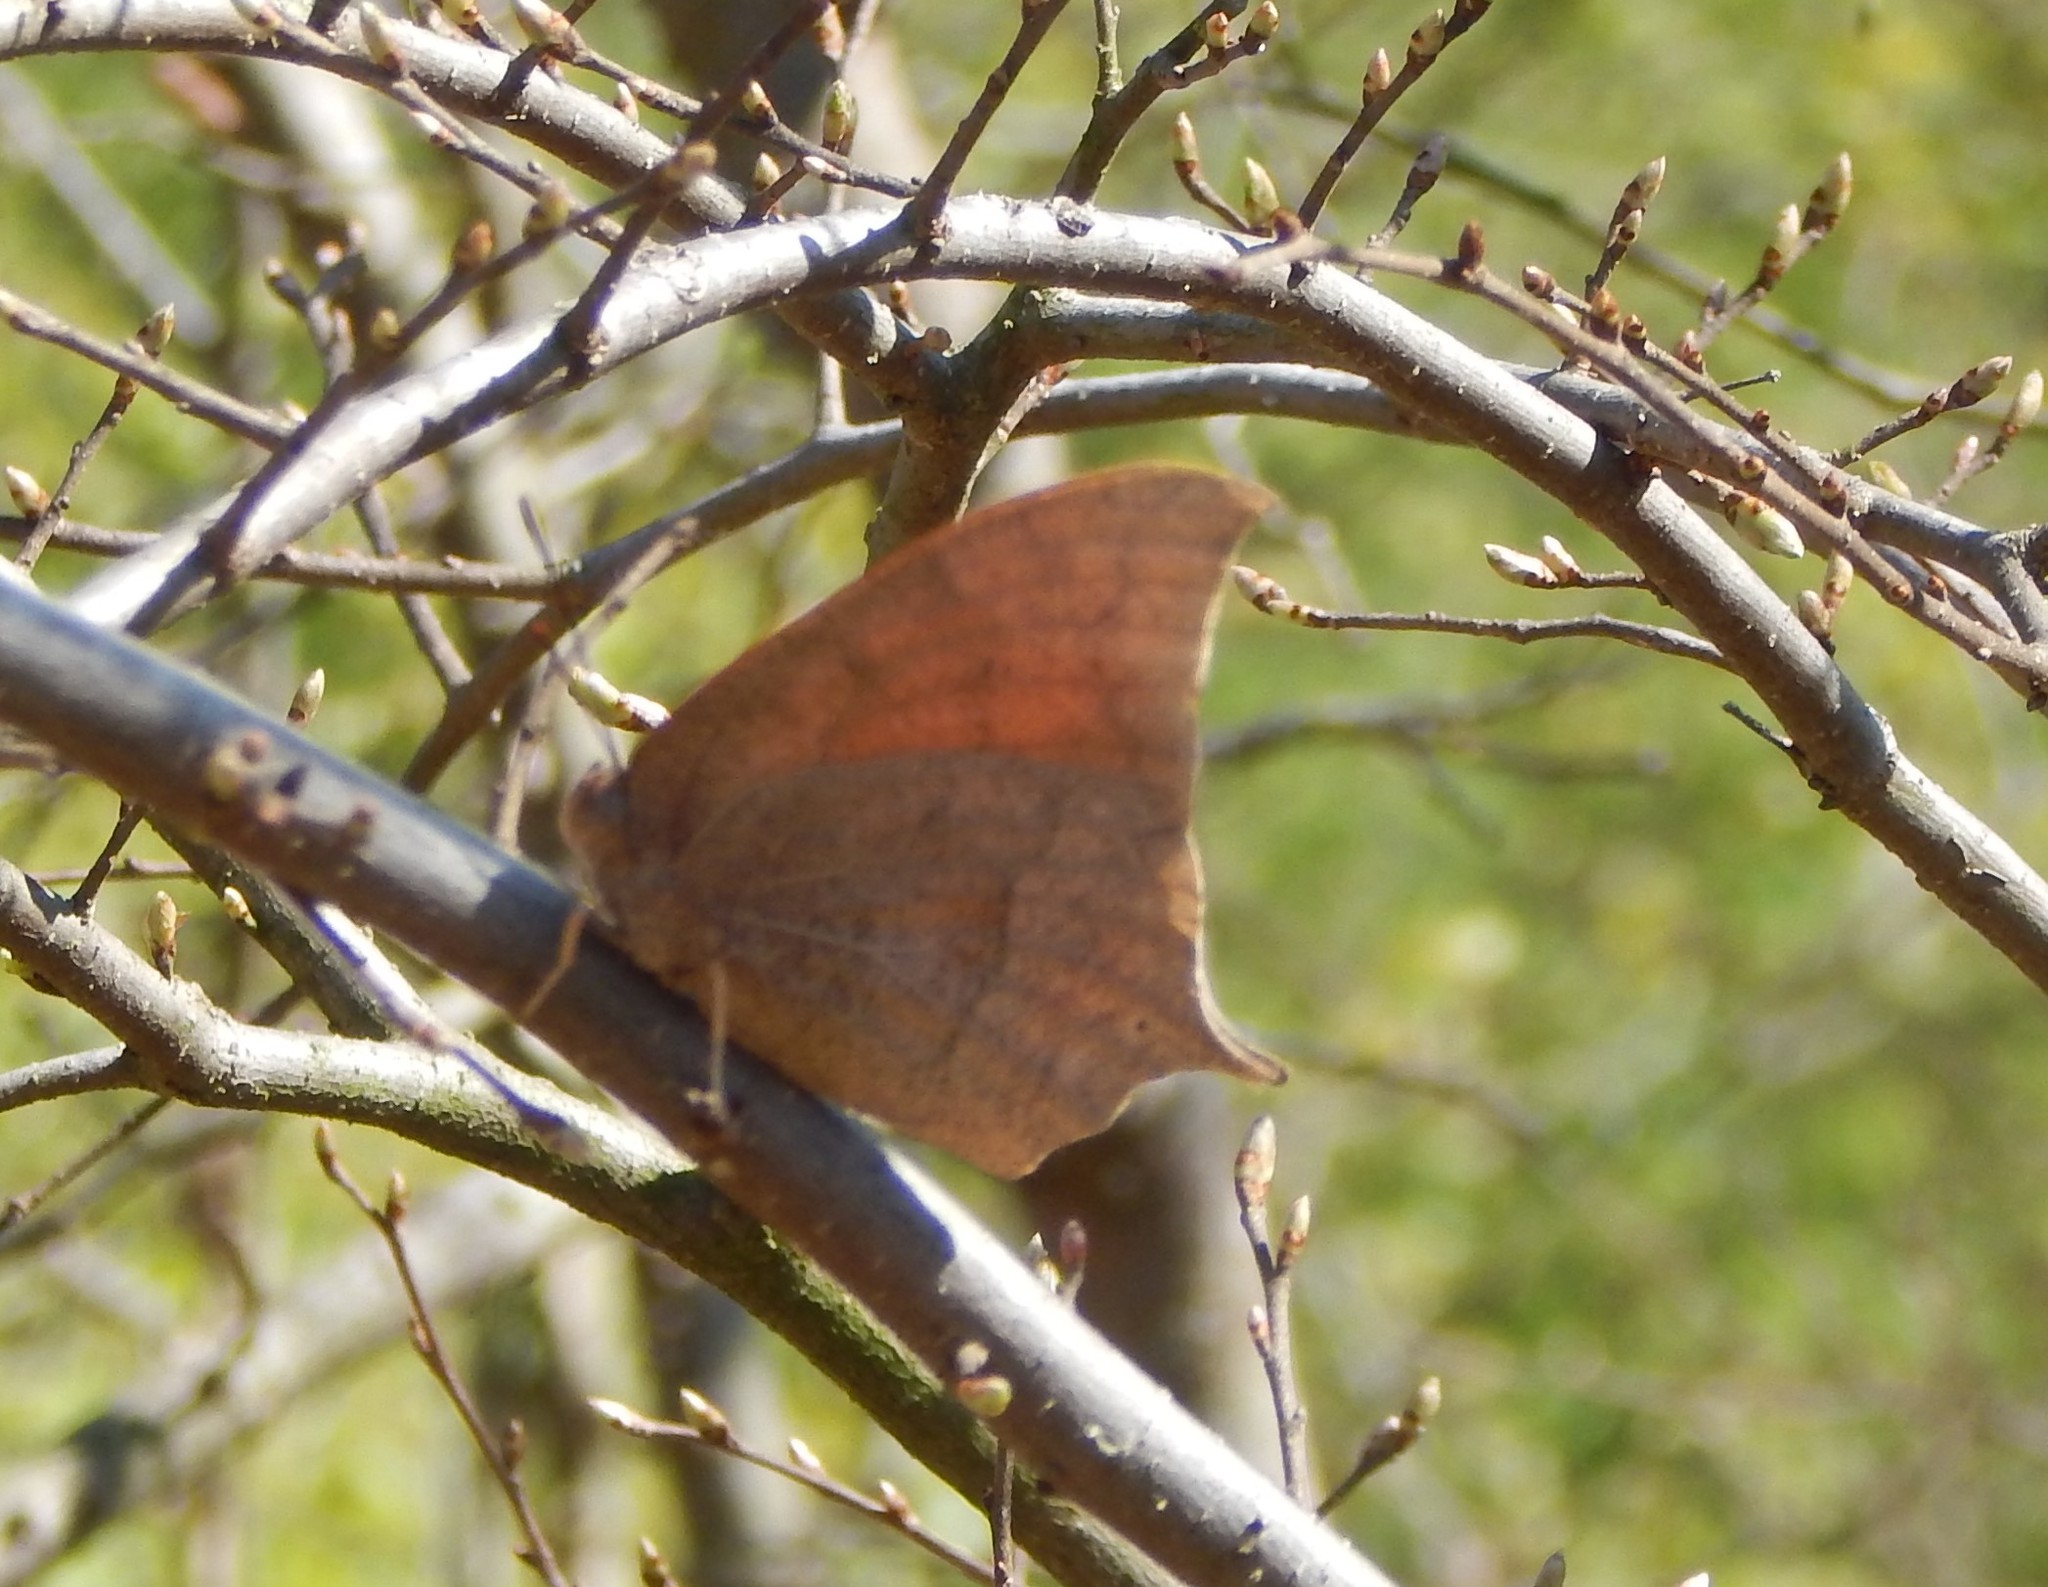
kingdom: Animalia
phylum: Arthropoda
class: Insecta
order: Lepidoptera
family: Nymphalidae
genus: Anaea
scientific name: Anaea andria
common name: Goatweed leafwing
